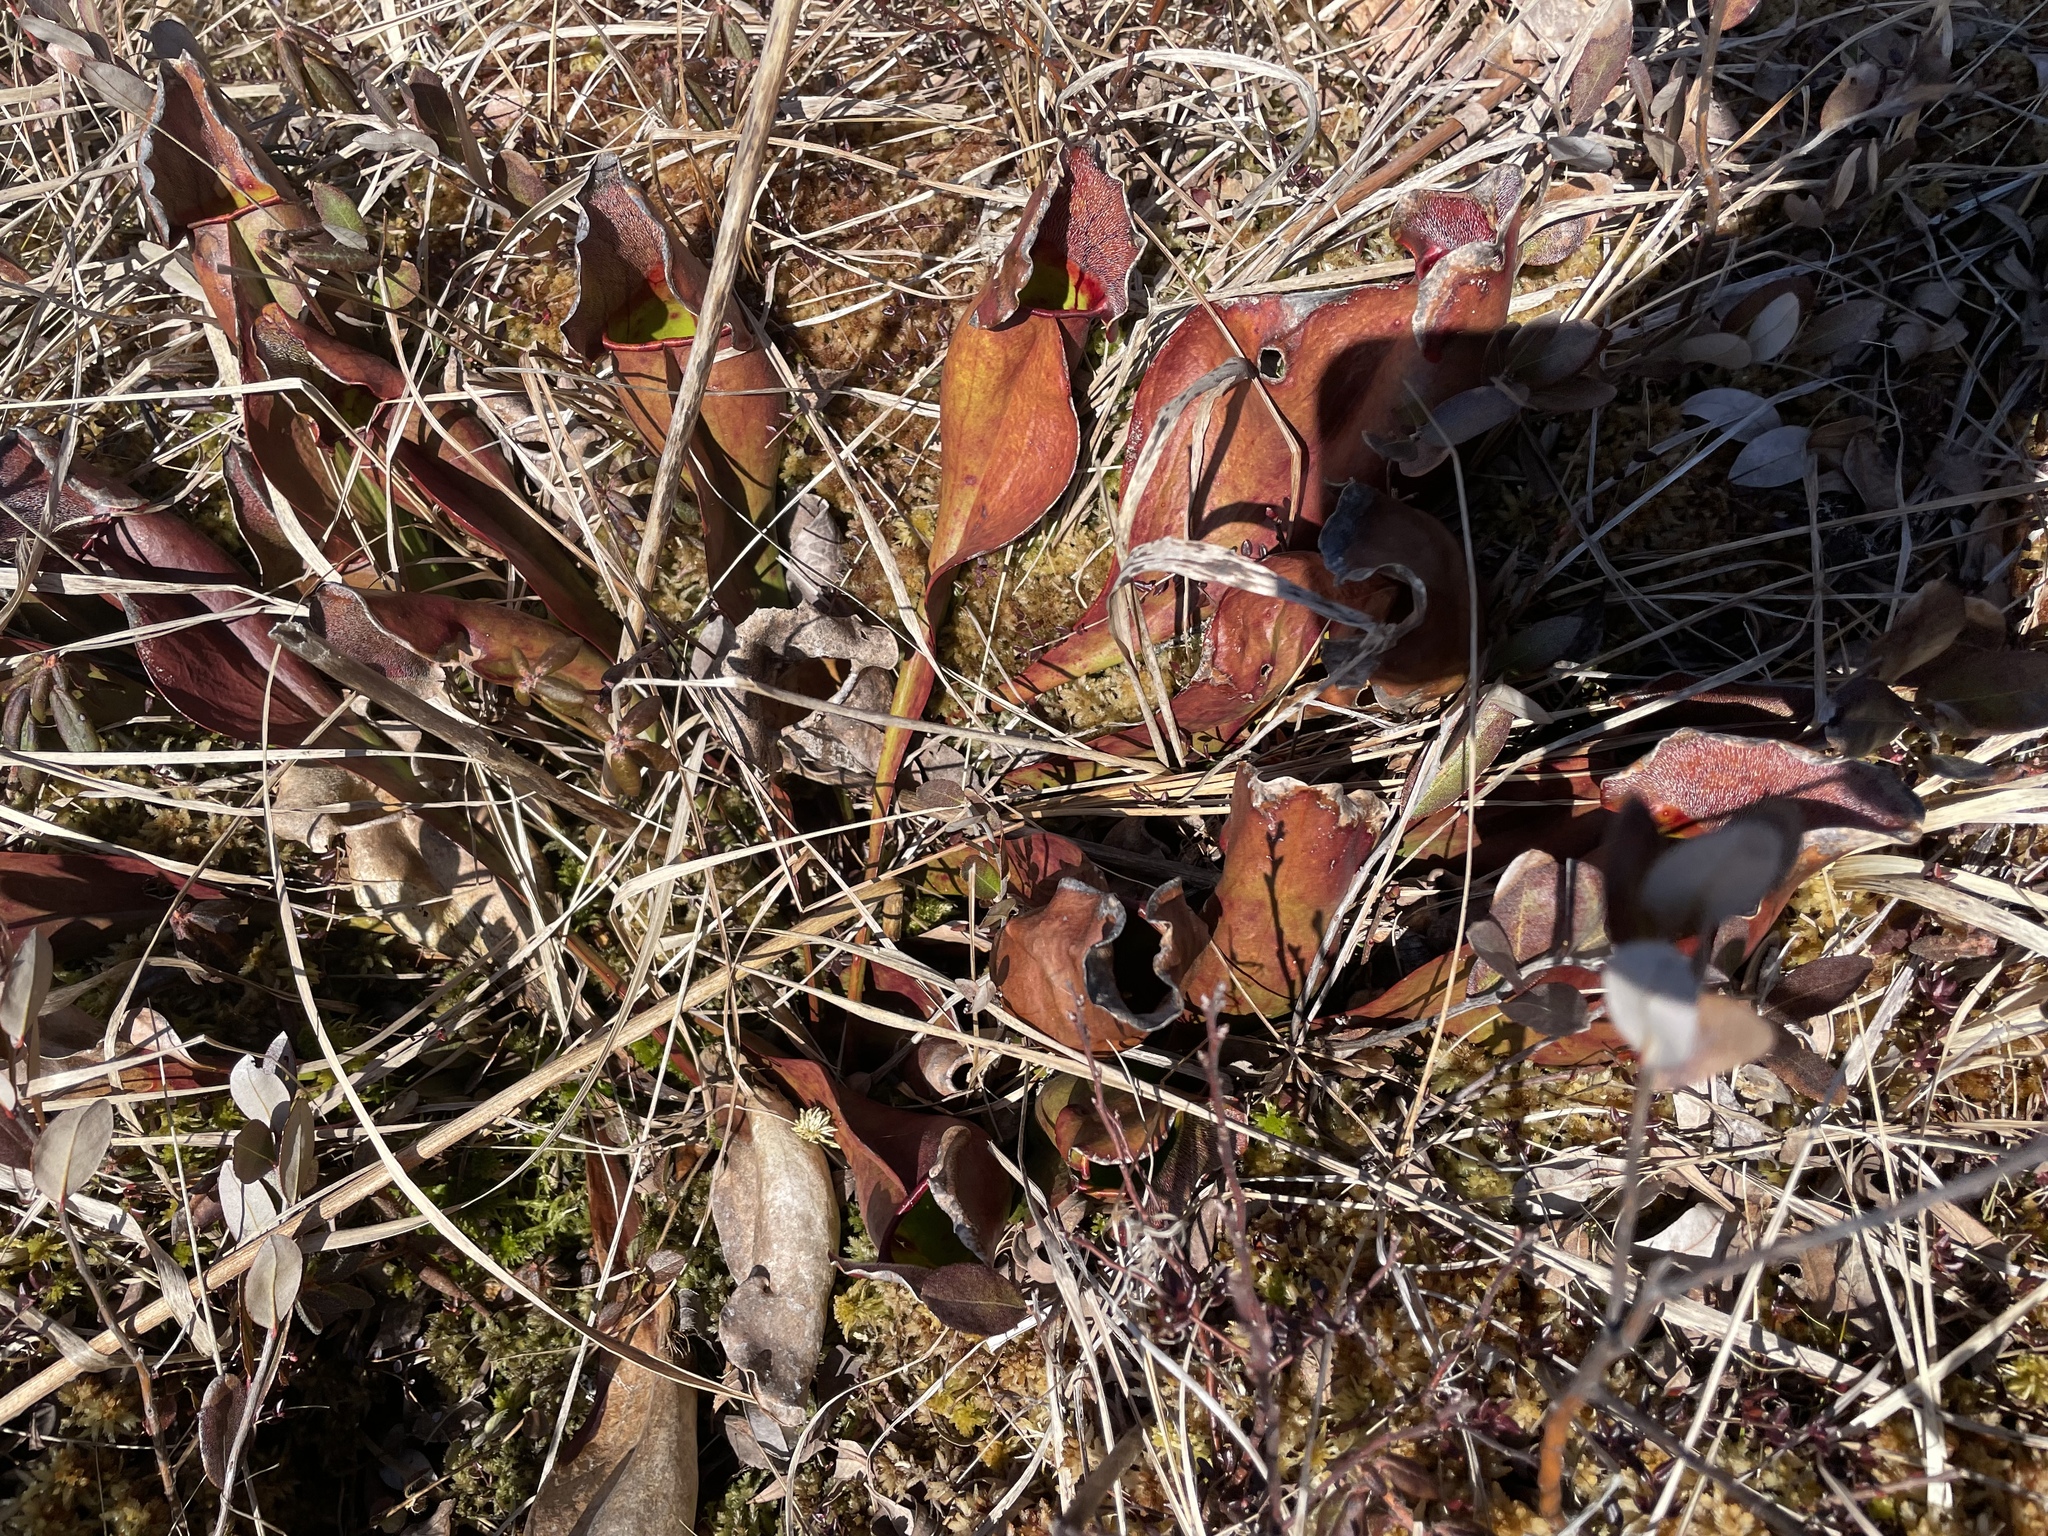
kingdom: Plantae
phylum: Tracheophyta
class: Magnoliopsida
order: Ericales
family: Sarraceniaceae
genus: Sarracenia
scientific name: Sarracenia purpurea
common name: Pitcherplant
